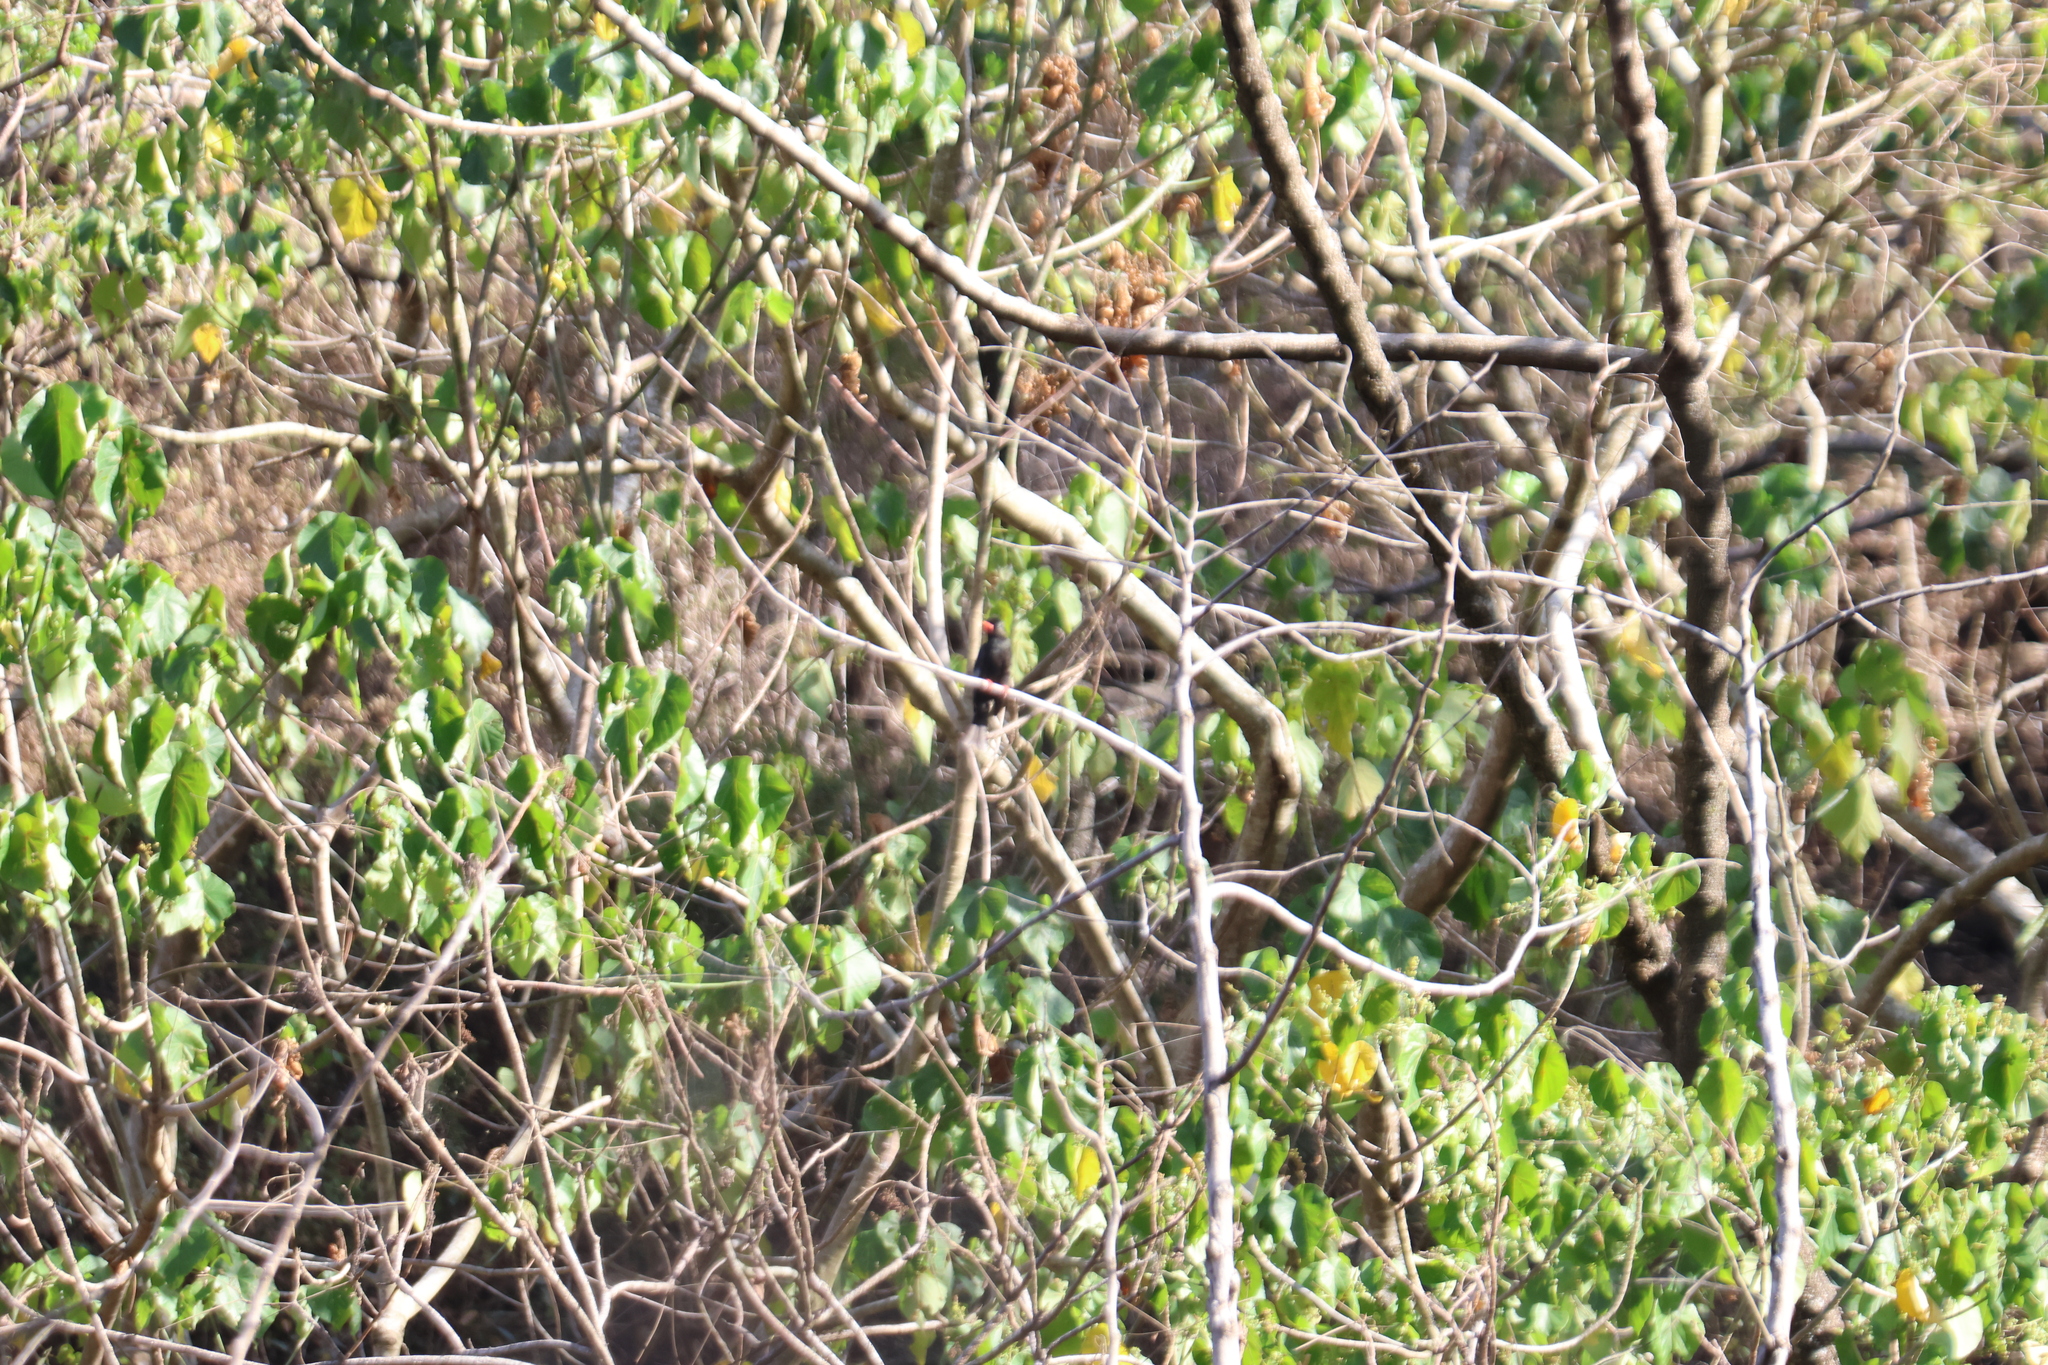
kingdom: Animalia
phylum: Chordata
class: Aves
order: Passeriformes
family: Pycnonotidae
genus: Hypsipetes
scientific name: Hypsipetes leucocephalus
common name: Black bulbul
